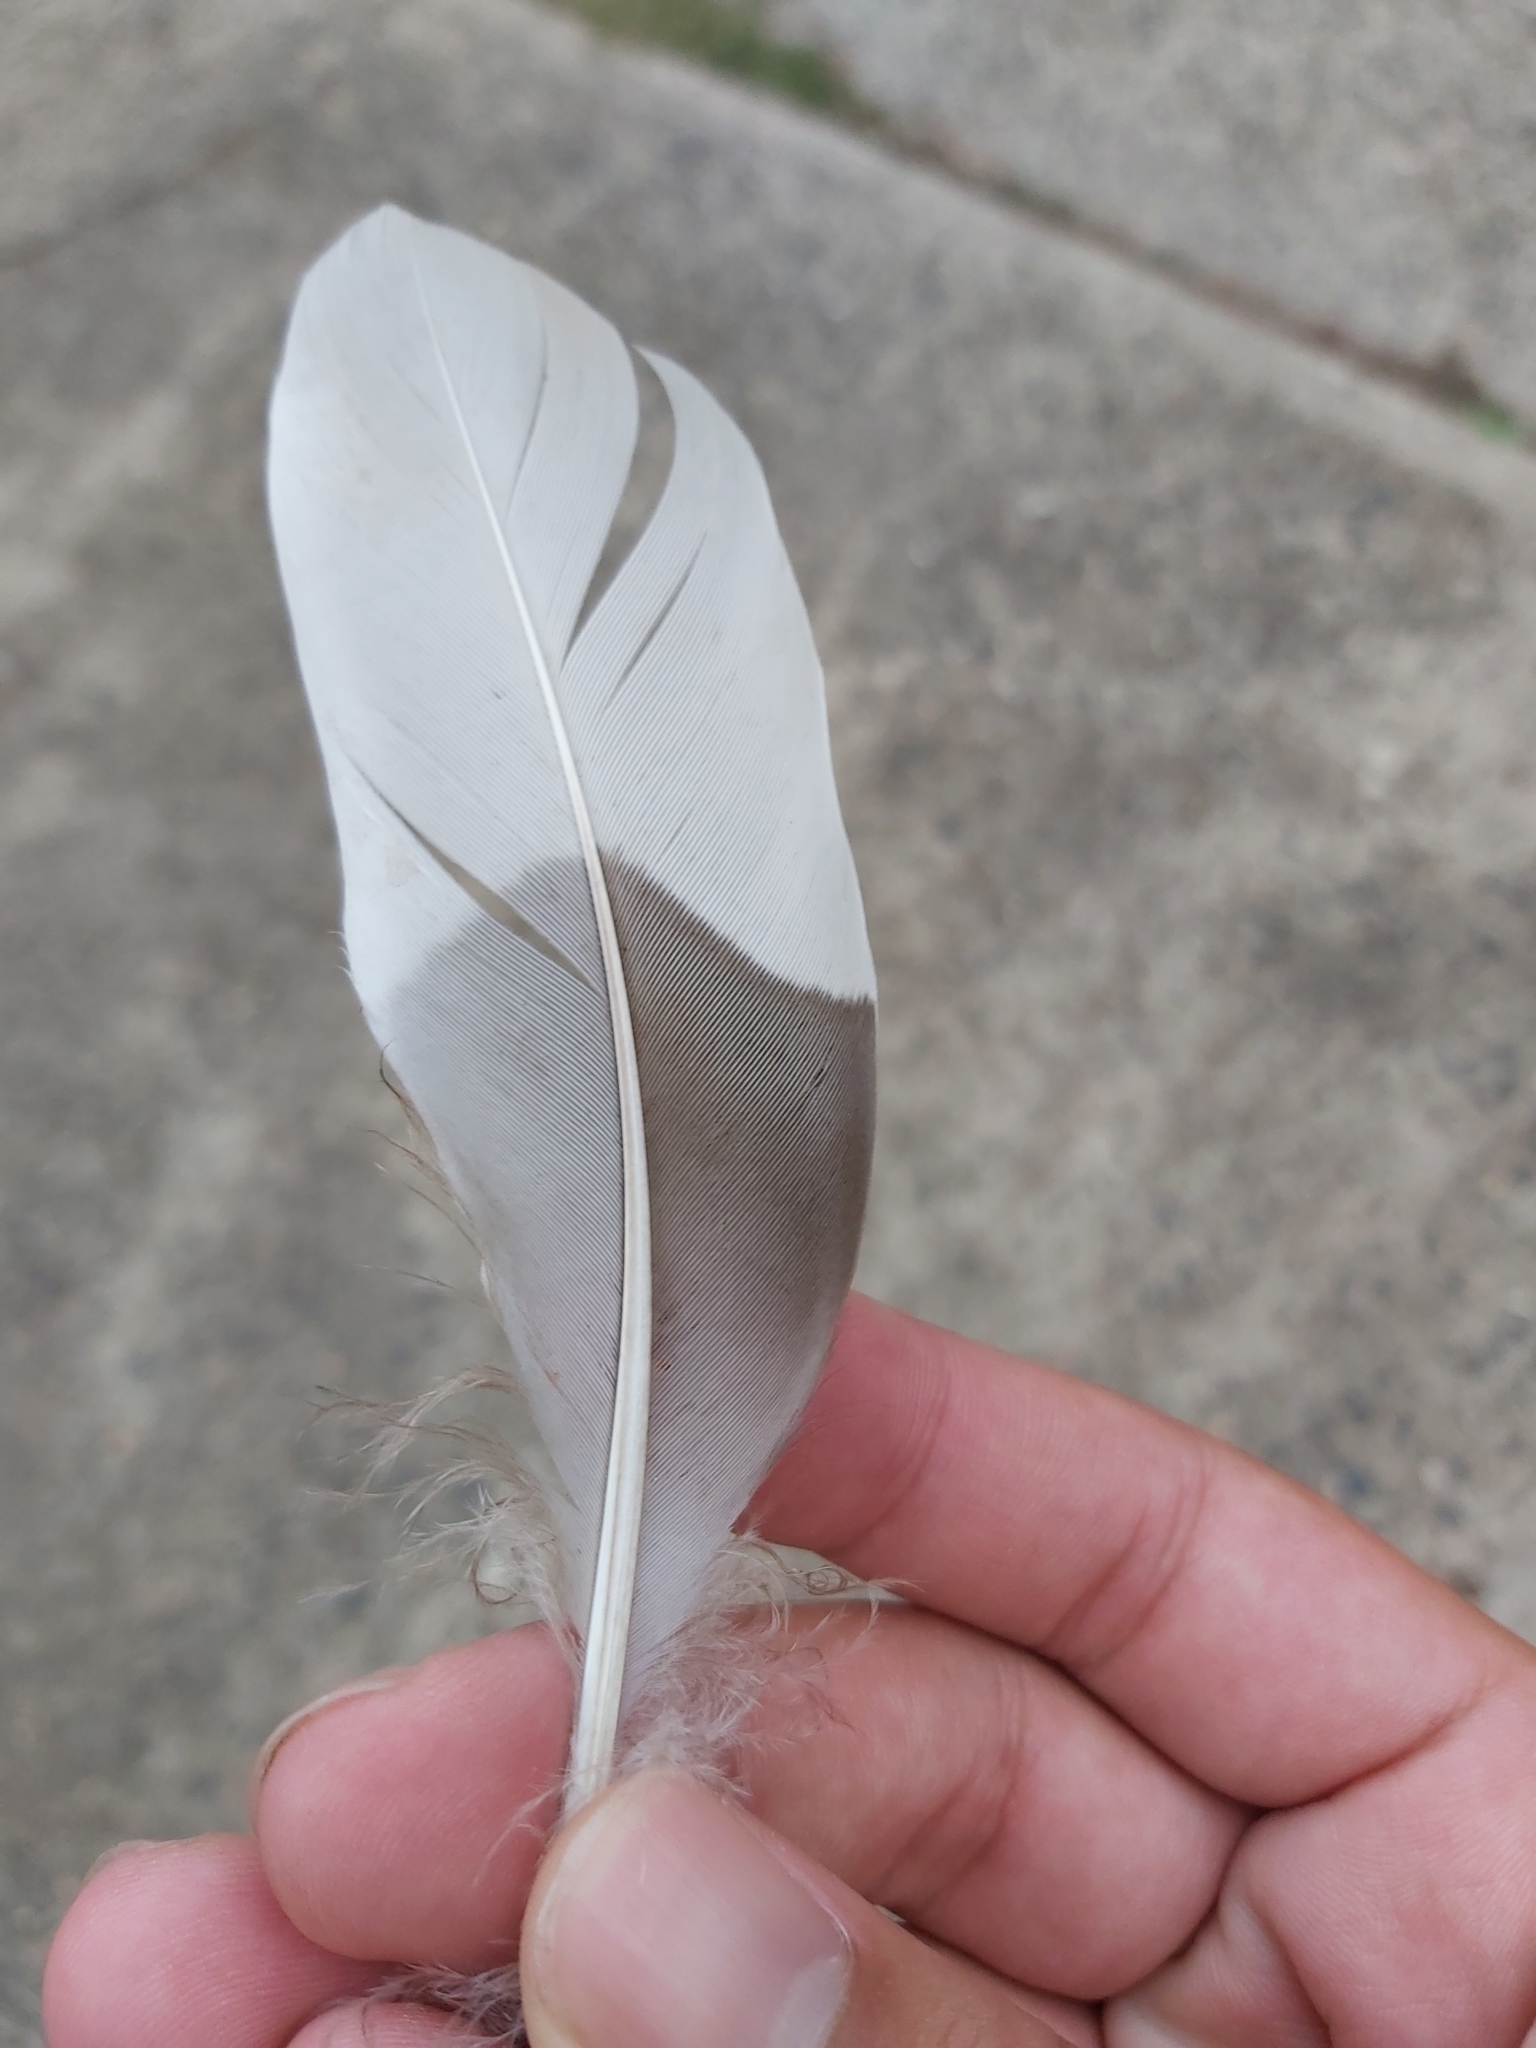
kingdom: Animalia
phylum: Chordata
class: Aves
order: Anseriformes
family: Anatidae
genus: Chenonetta
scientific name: Chenonetta jubata
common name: Maned duck
